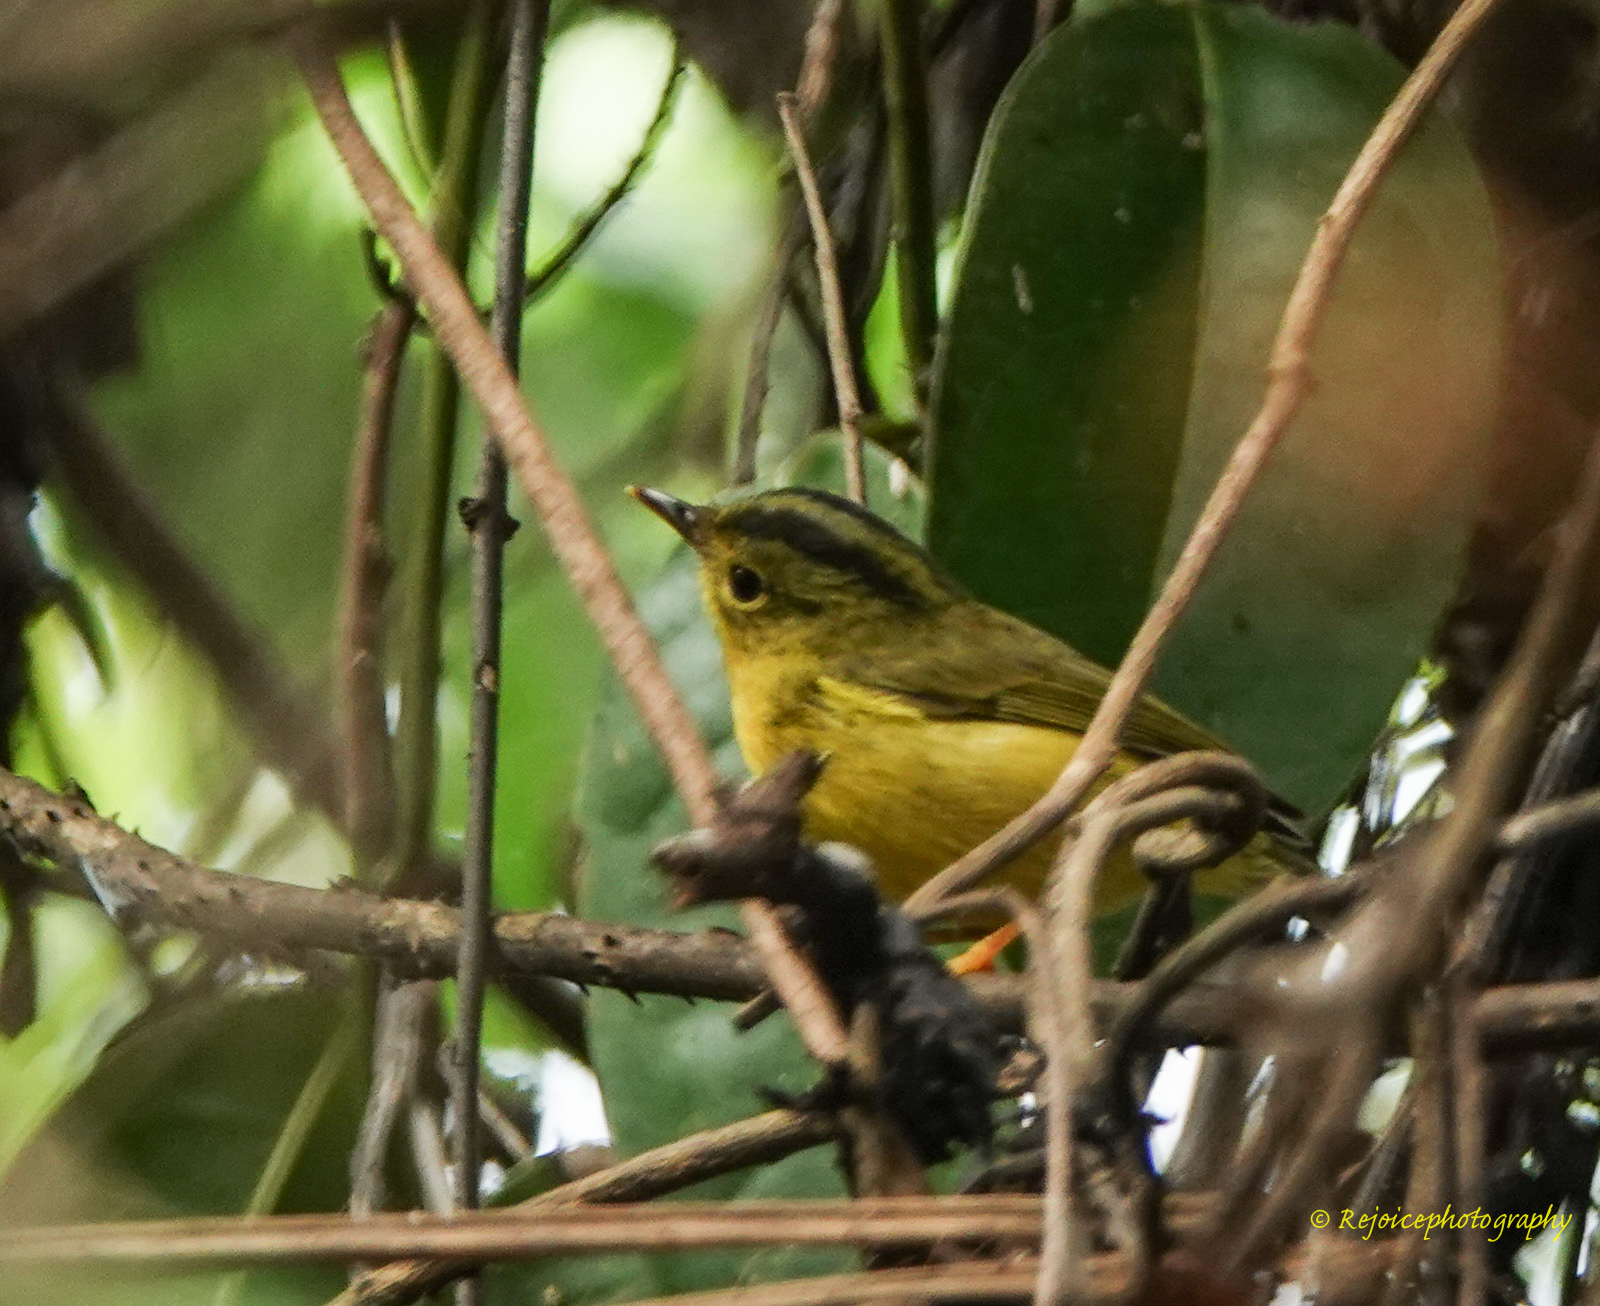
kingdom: Animalia
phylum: Chordata
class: Aves
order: Passeriformes
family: Phylloscopidae
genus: Seicercus
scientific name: Seicercus burkii
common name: Green-crowned warbler
